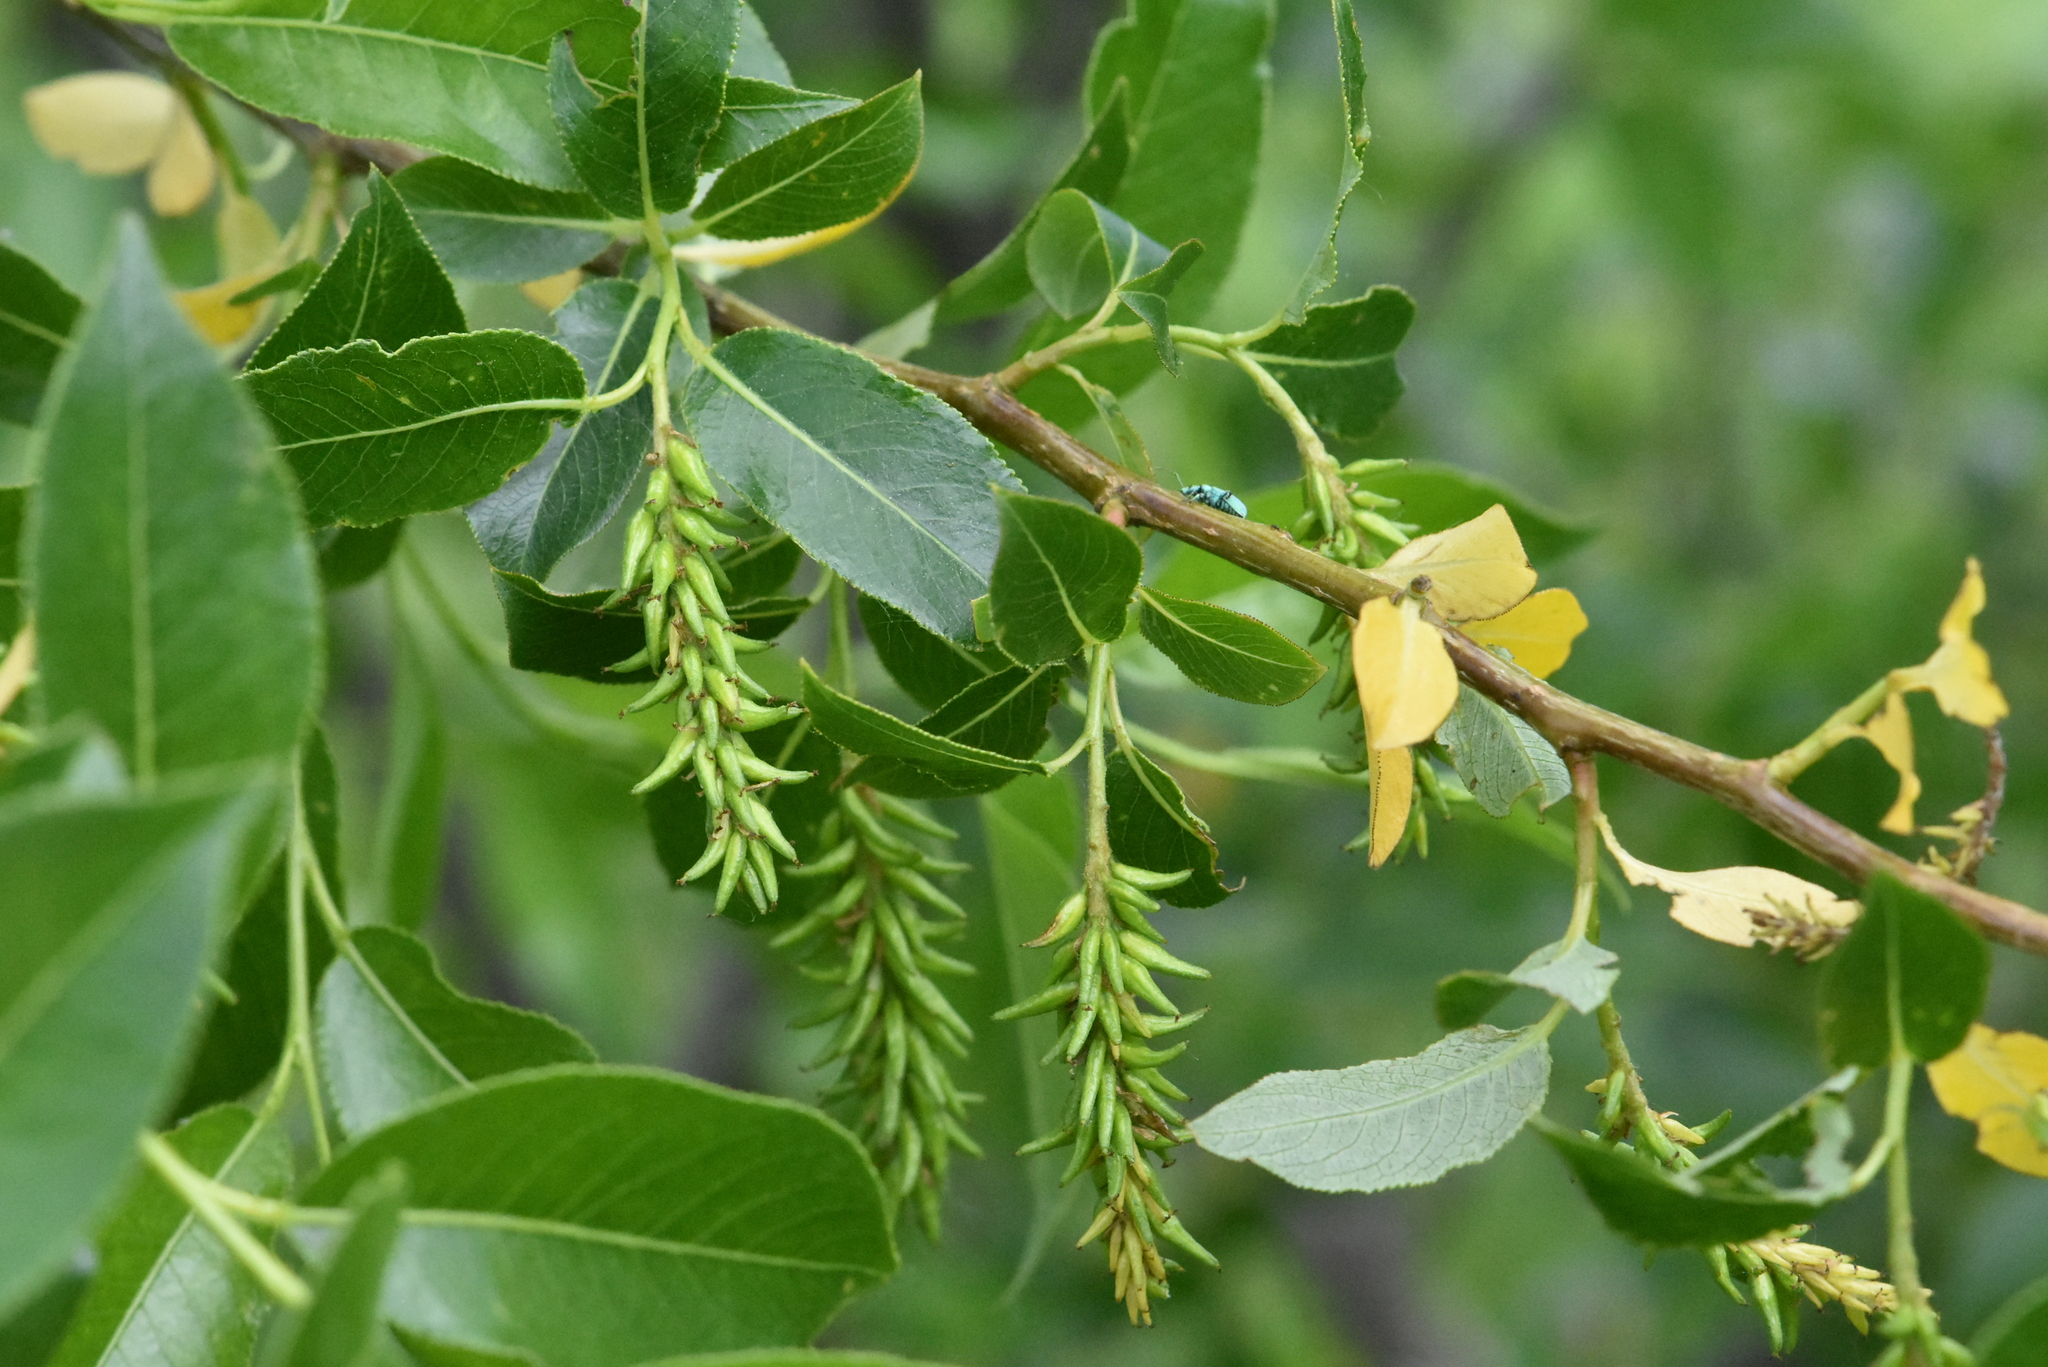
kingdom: Plantae
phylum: Tracheophyta
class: Magnoliopsida
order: Malpighiales
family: Salicaceae
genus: Salix
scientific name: Salix pentandra
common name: Bay willow
